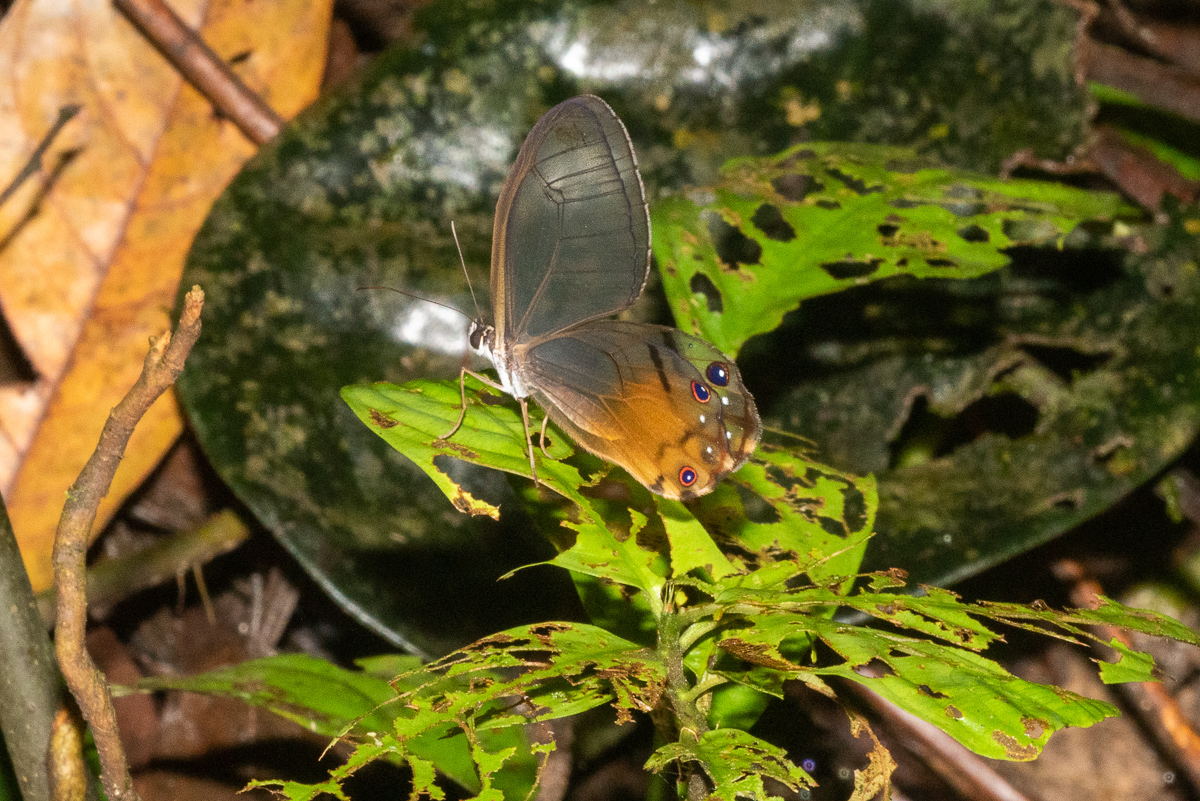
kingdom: Animalia
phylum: Arthropoda
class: Insecta
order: Lepidoptera
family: Nymphalidae
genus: Haetera
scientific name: Haetera piera
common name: Amber phantom
